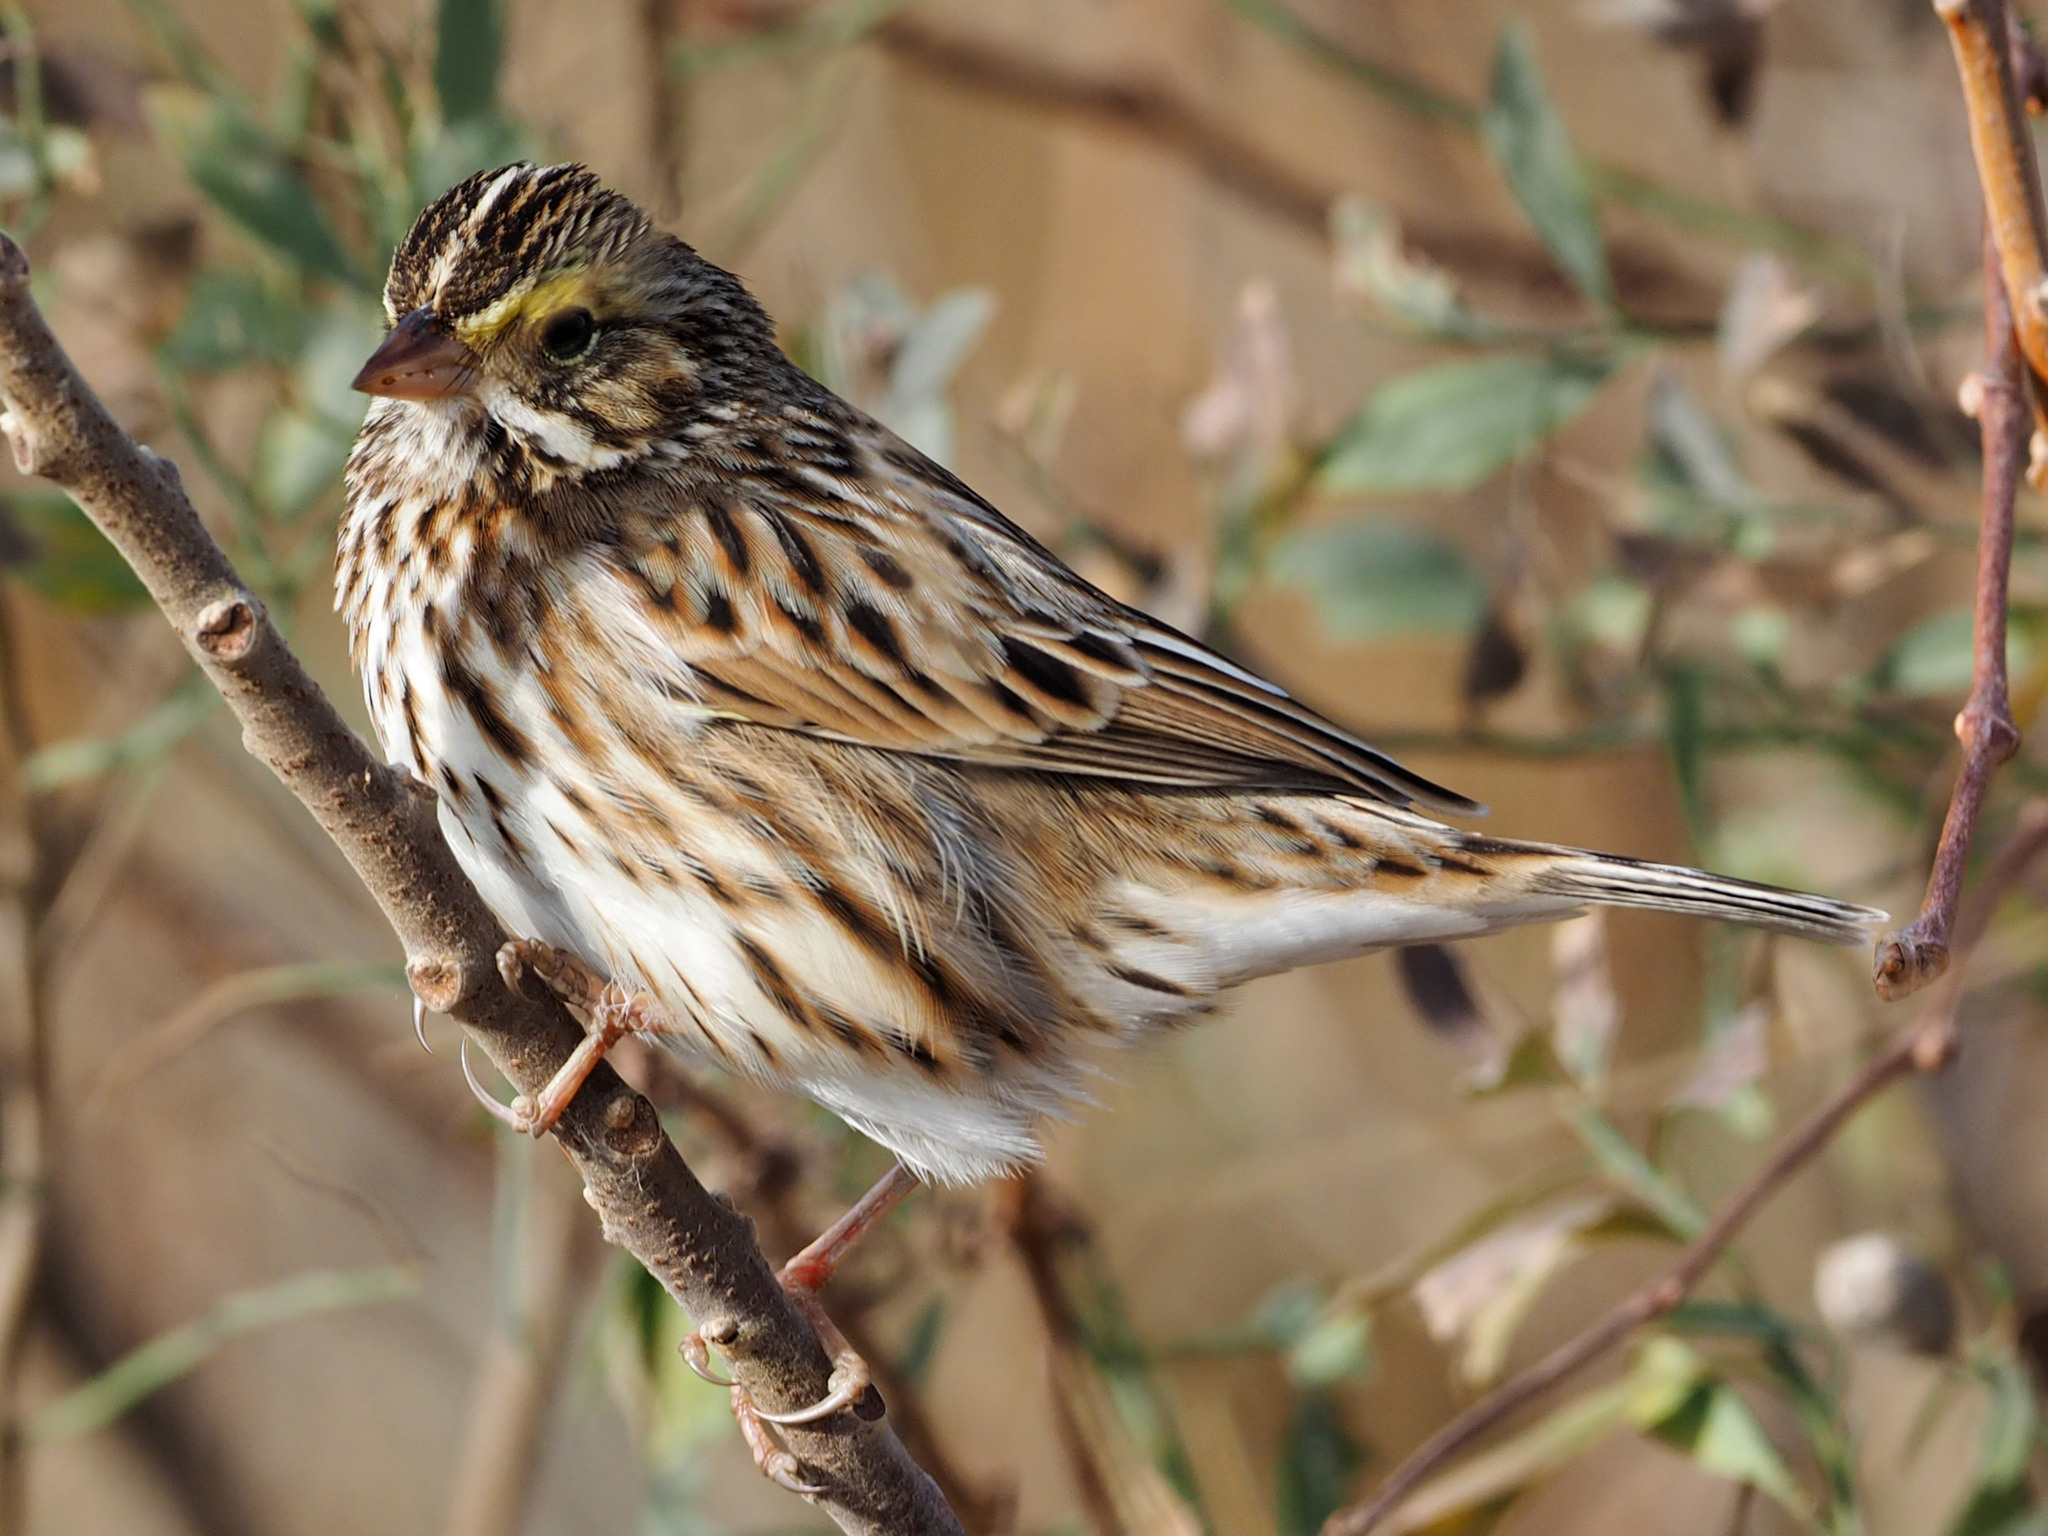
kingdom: Animalia
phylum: Chordata
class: Aves
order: Passeriformes
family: Passerellidae
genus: Passerculus
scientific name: Passerculus sandwichensis
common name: Savannah sparrow
